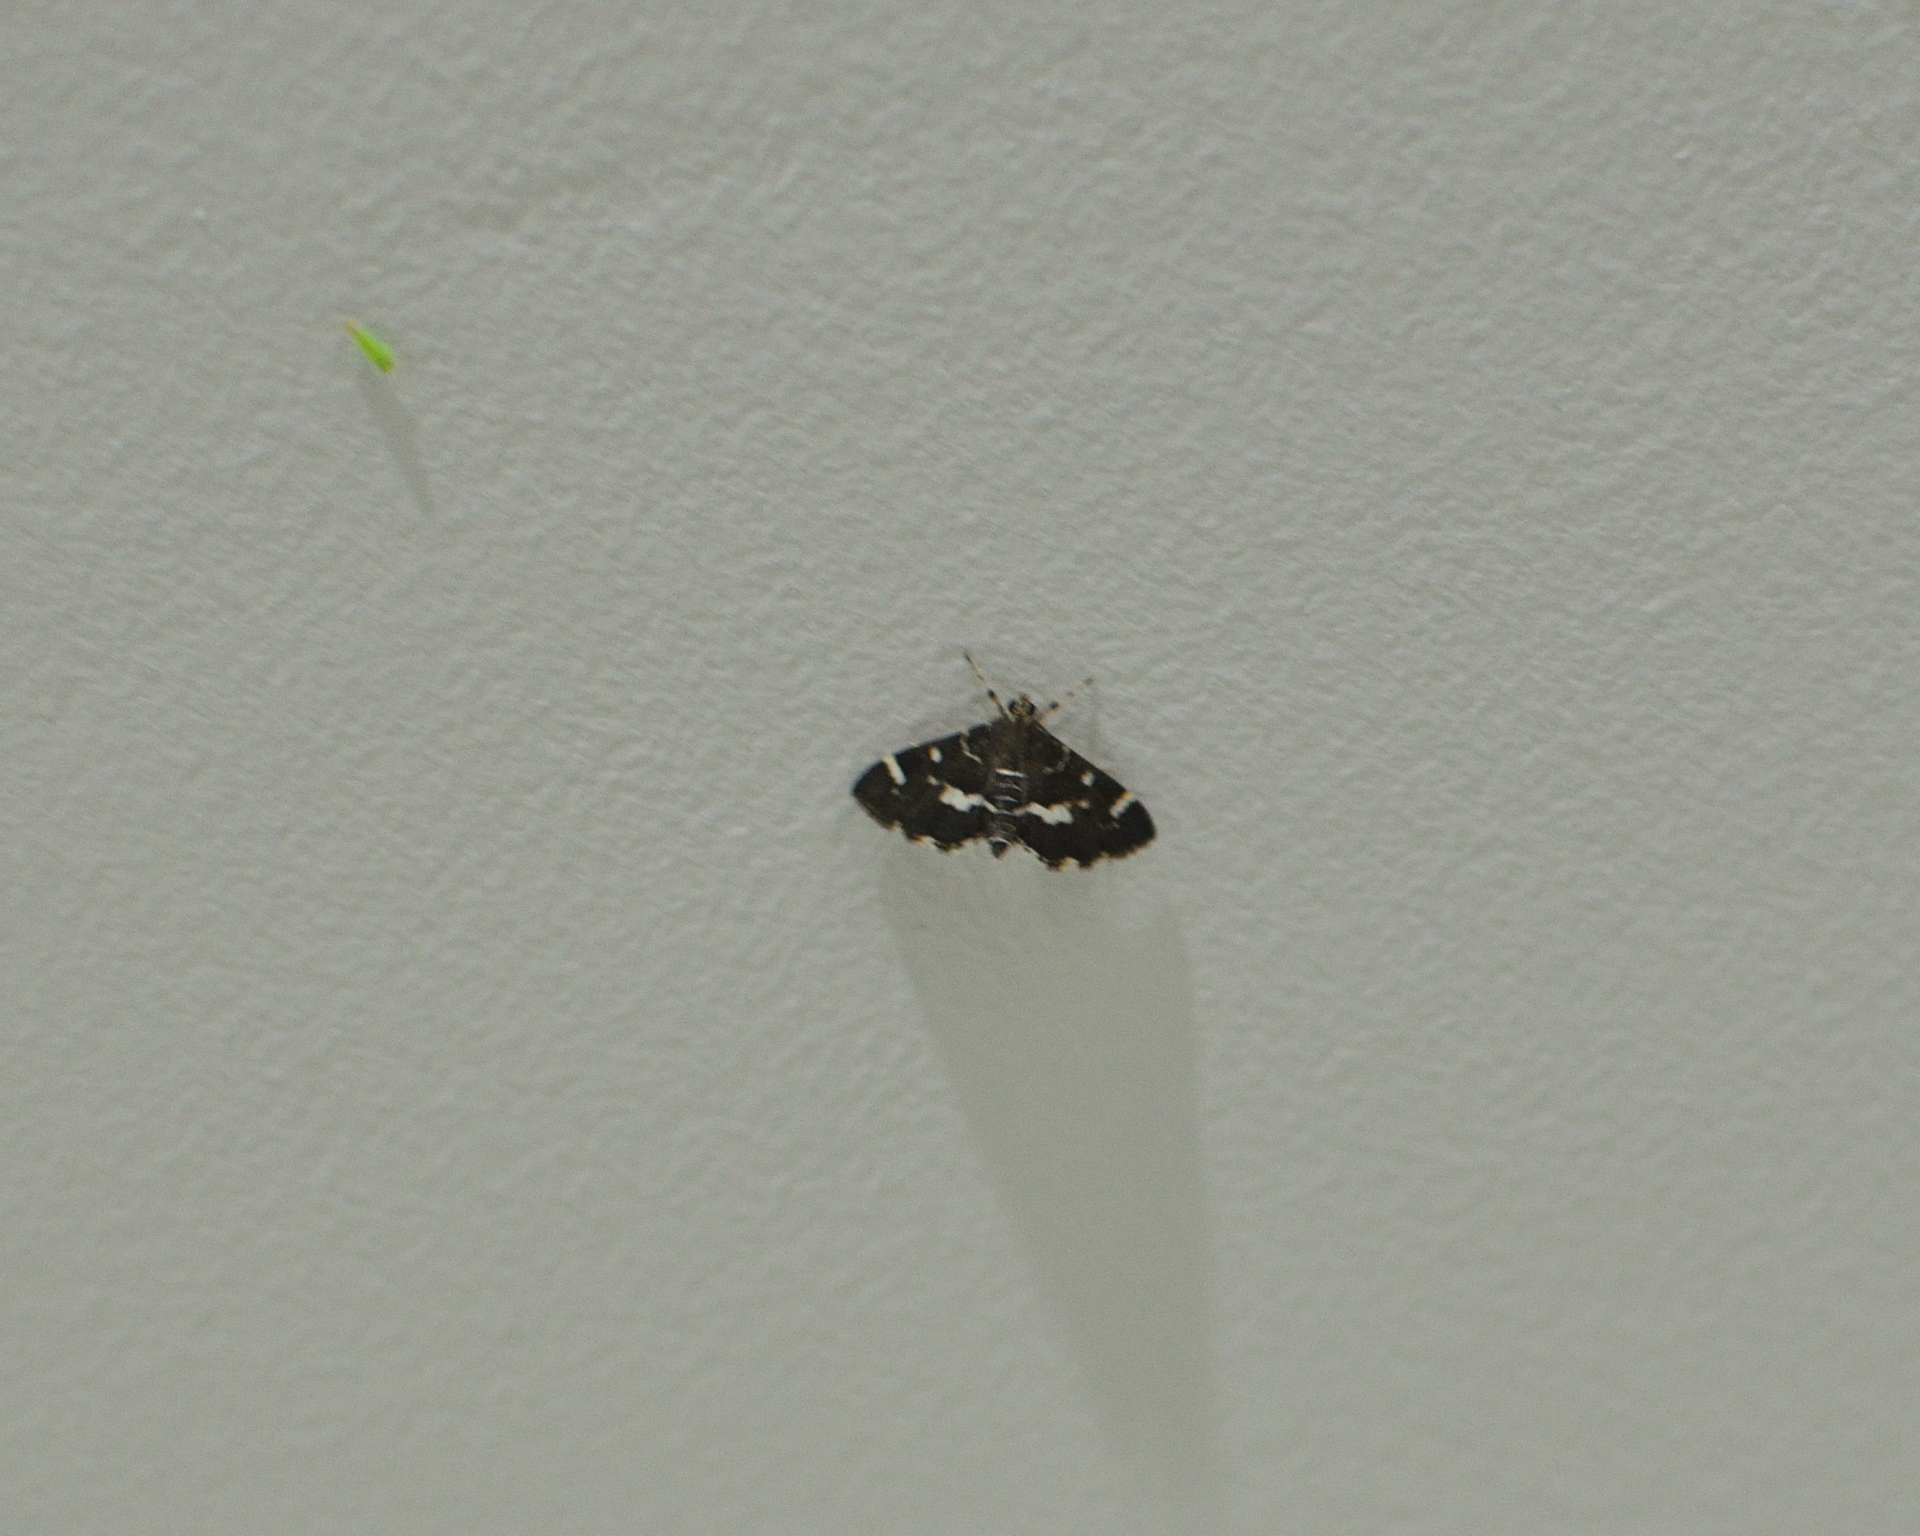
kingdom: Animalia
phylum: Arthropoda
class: Insecta
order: Lepidoptera
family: Crambidae
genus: Hymenia
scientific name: Hymenia perspectalis
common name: Spotted beet webworm
